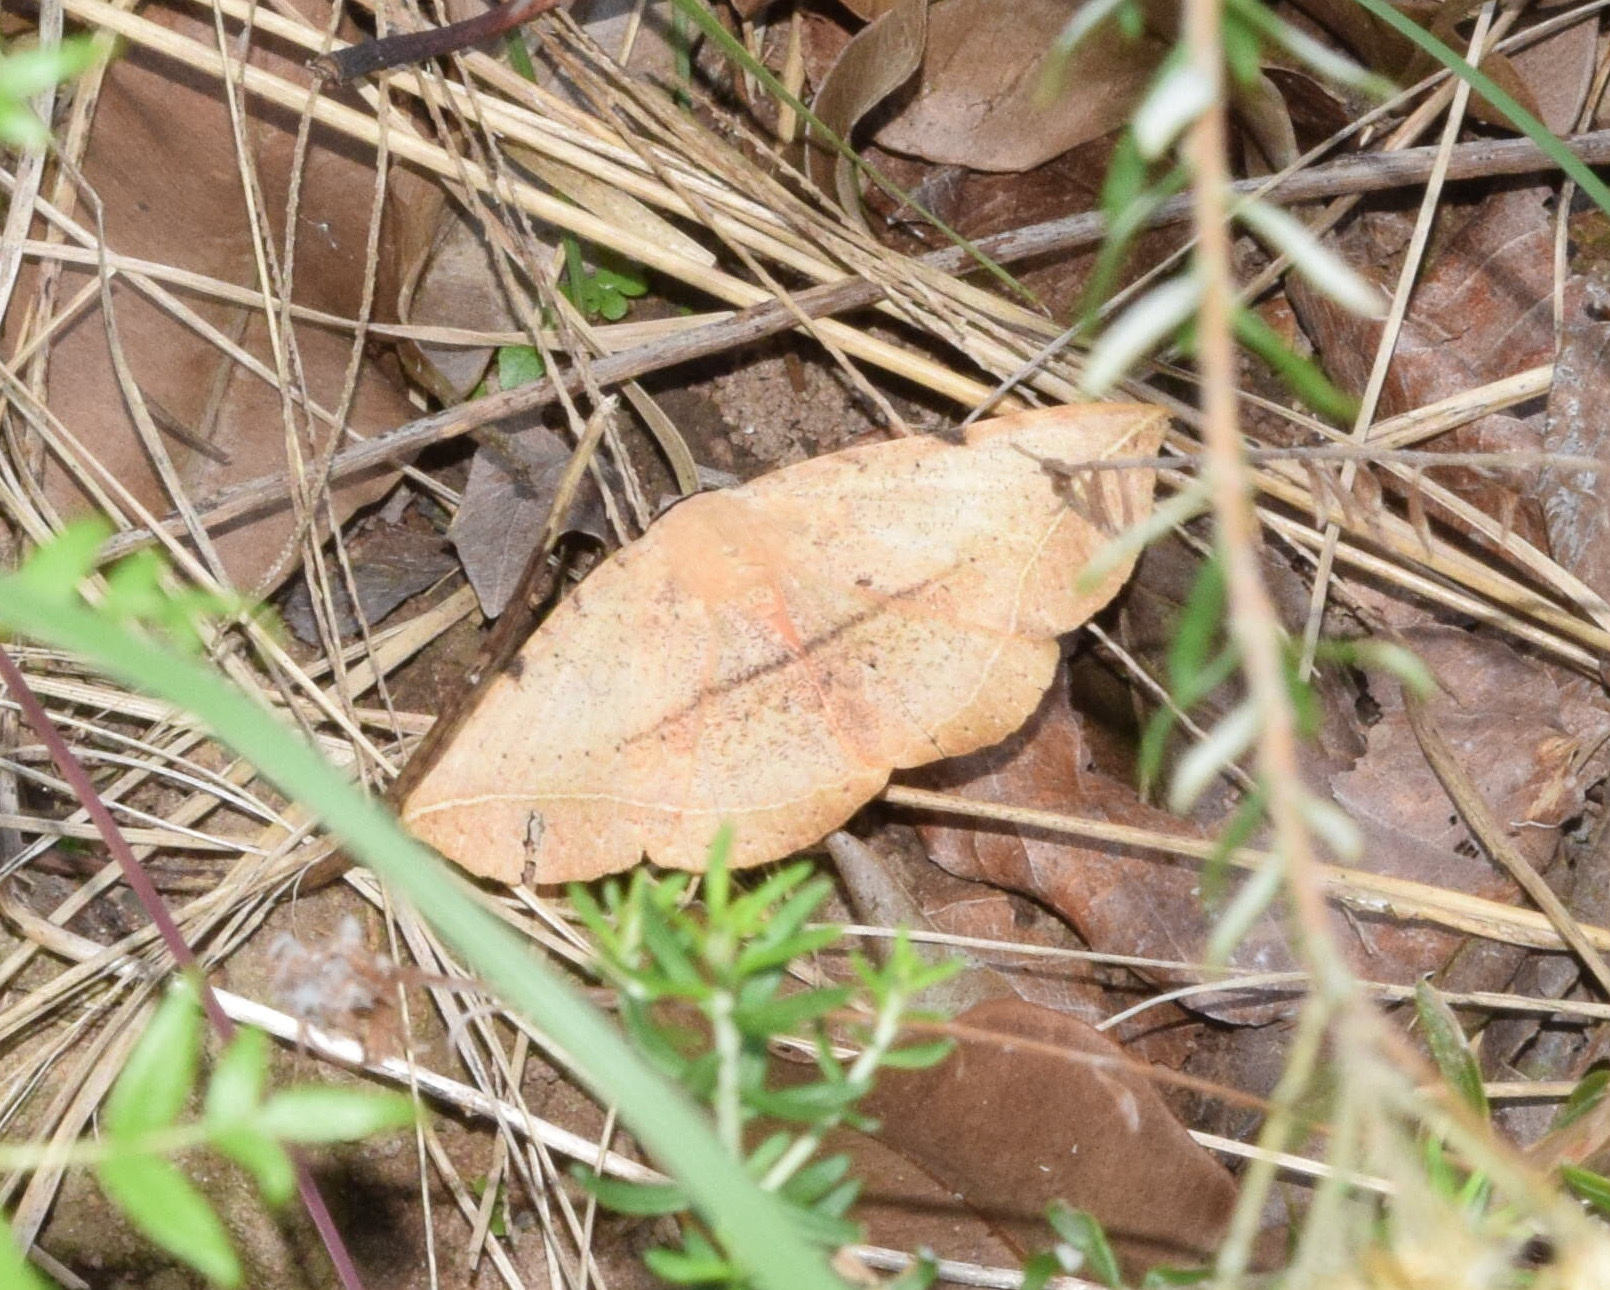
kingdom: Animalia
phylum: Arthropoda
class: Insecta
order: Lepidoptera
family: Erebidae
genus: Hypopyra
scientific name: Hypopyra capensis
